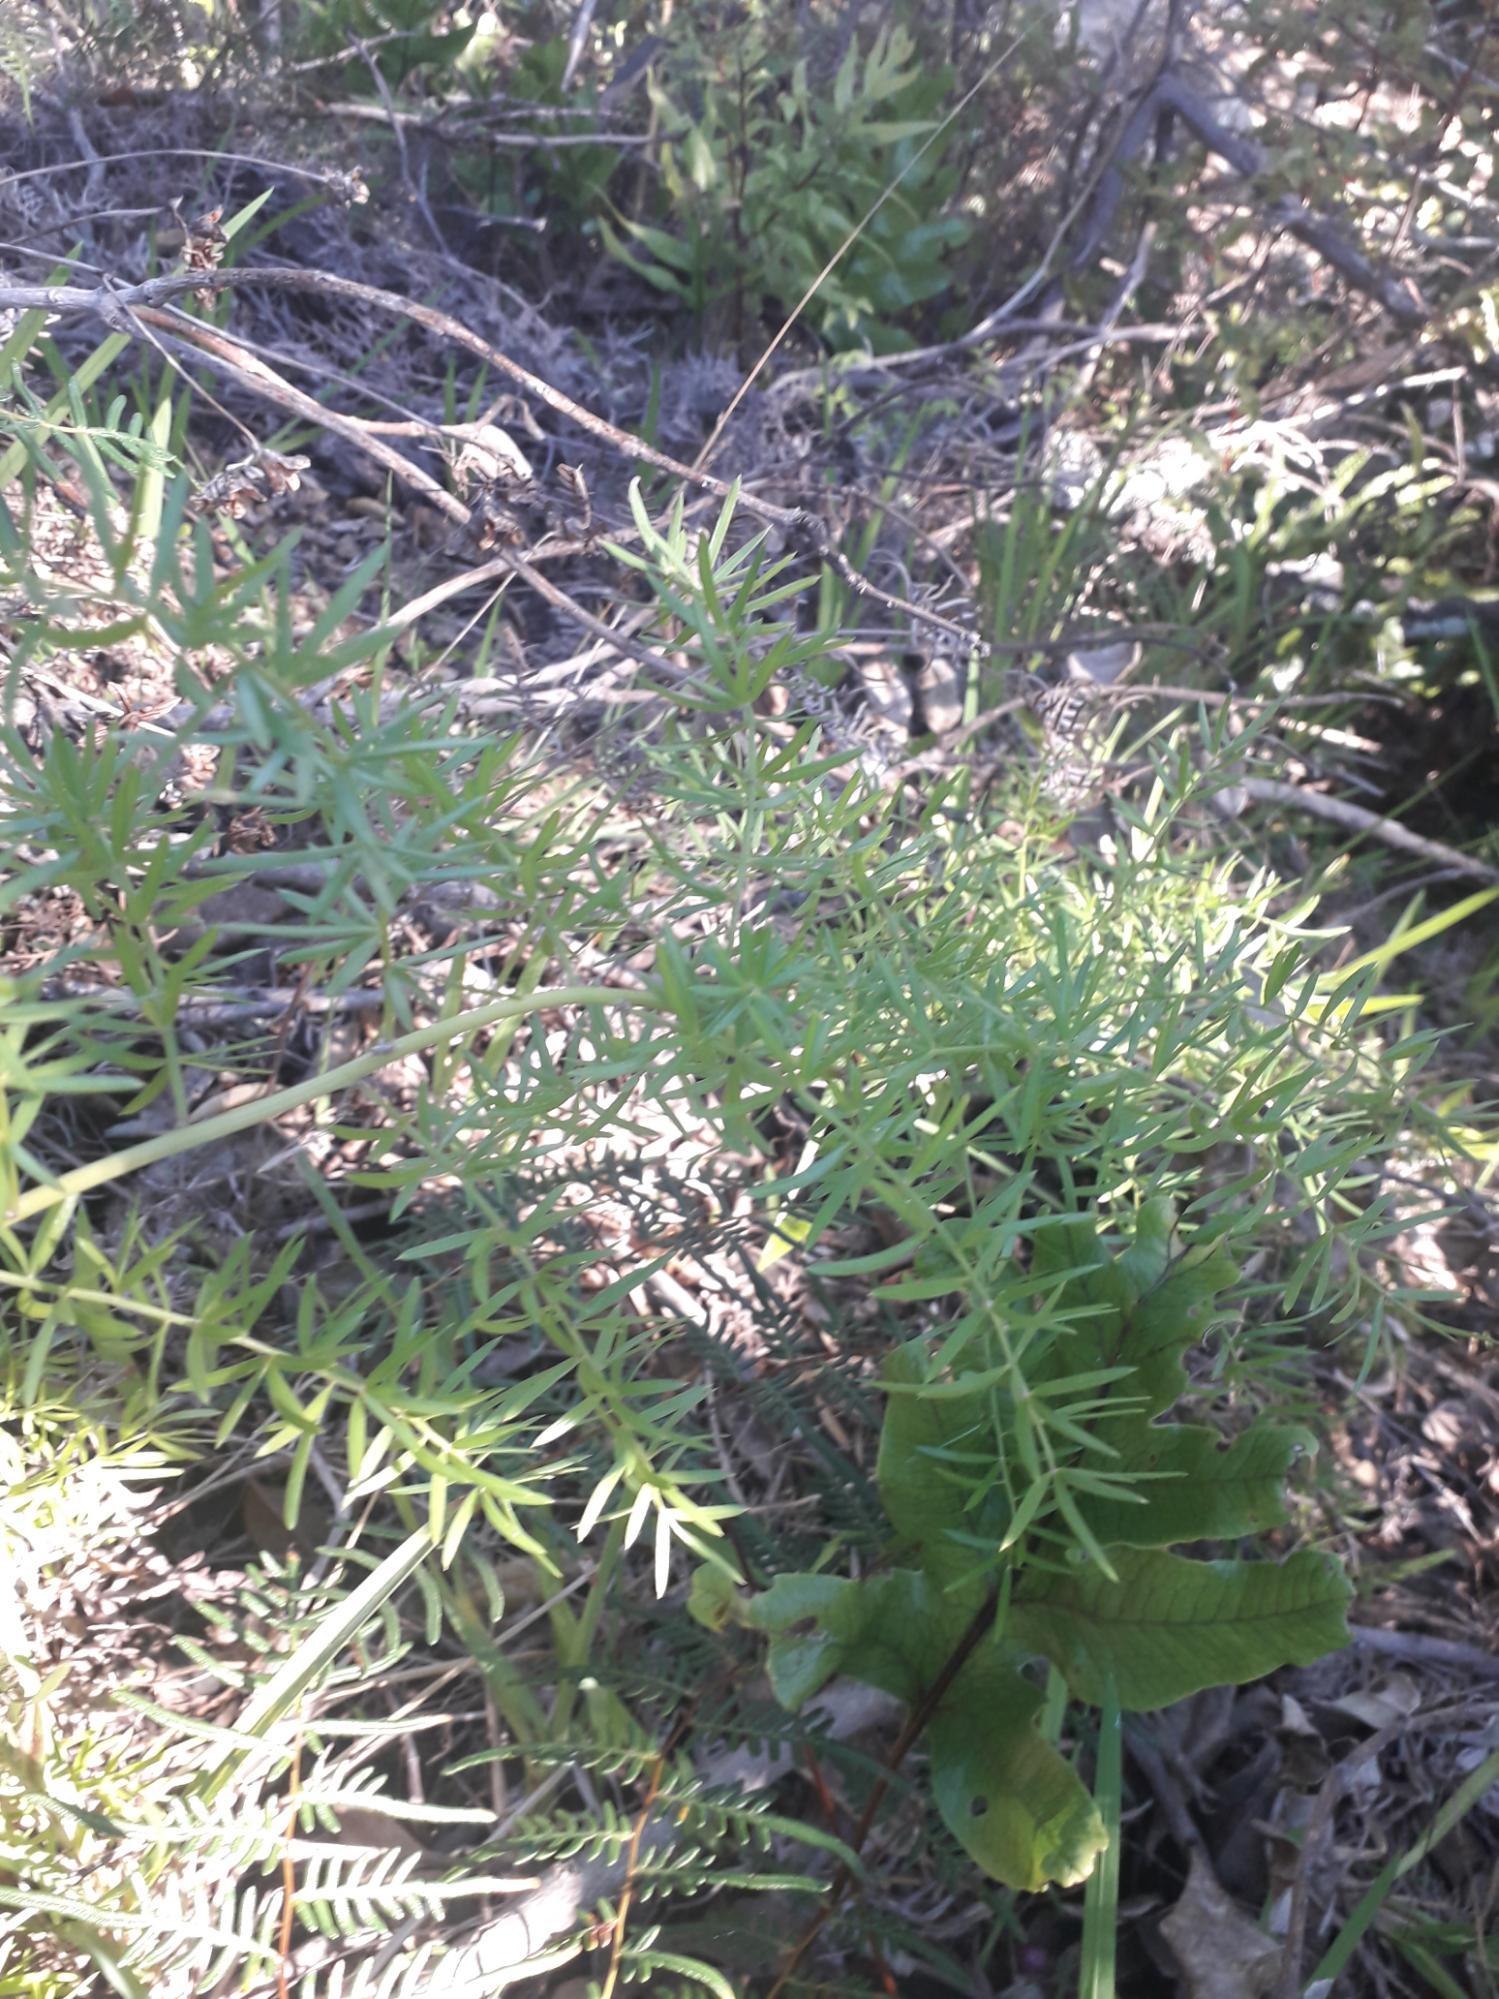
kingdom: Plantae
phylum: Tracheophyta
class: Liliopsida
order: Asparagales
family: Asparagaceae
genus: Asparagus
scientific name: Asparagus aethiopicus
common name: Sprenger's asparagus fern
